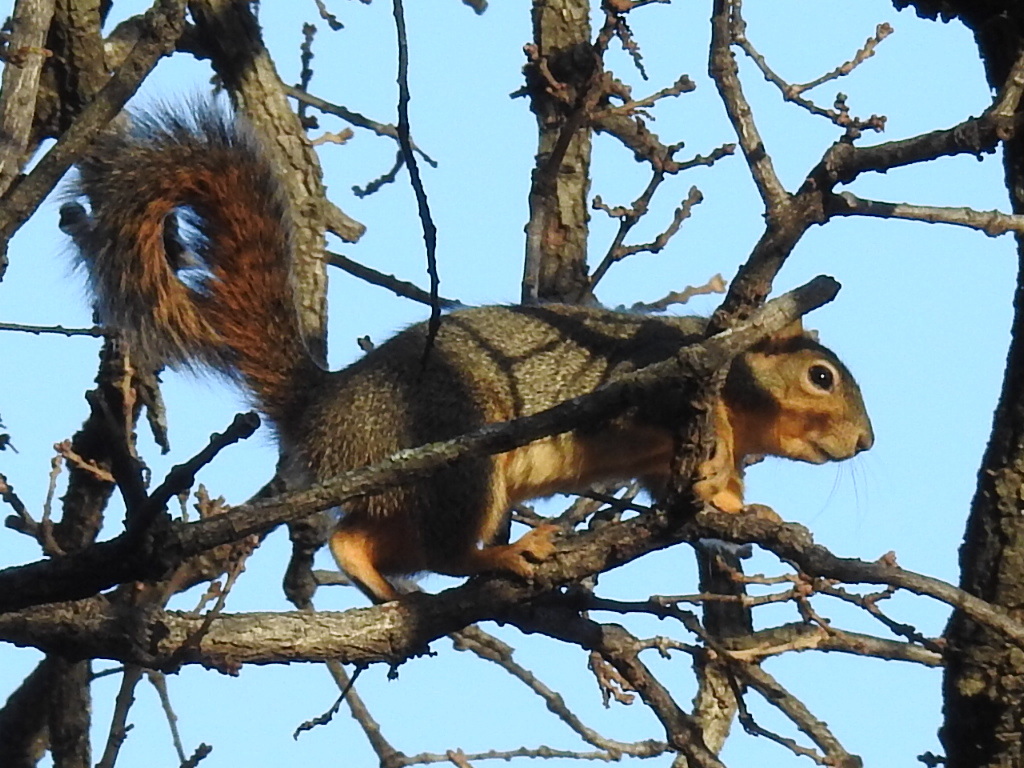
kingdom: Animalia
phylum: Chordata
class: Mammalia
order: Rodentia
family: Sciuridae
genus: Sciurus
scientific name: Sciurus niger
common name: Fox squirrel
